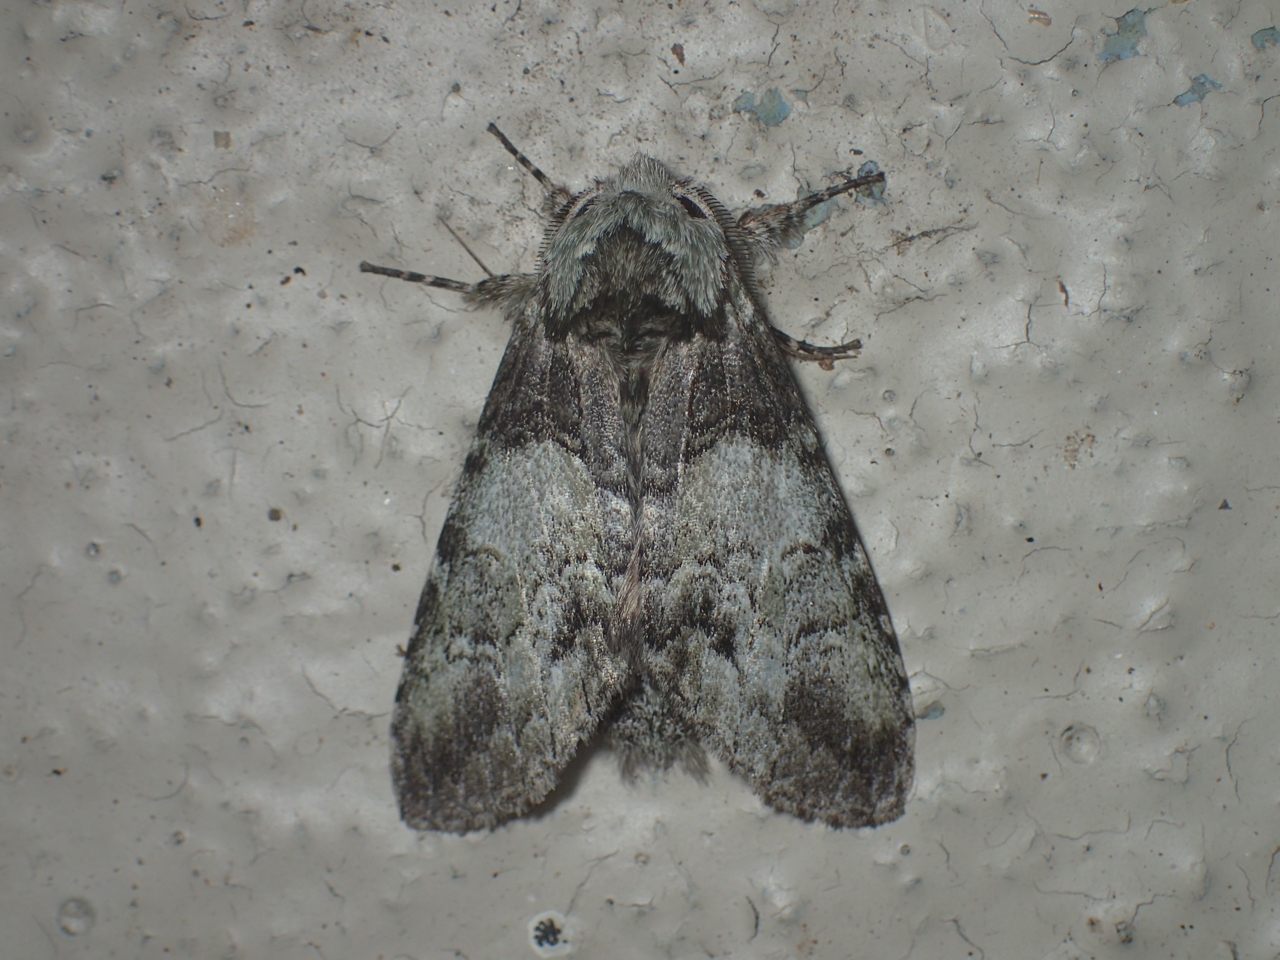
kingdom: Animalia
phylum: Arthropoda
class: Insecta
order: Lepidoptera
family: Notodontidae
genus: Macrurocampa
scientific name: Macrurocampa marthesia
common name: Mottled prominent
